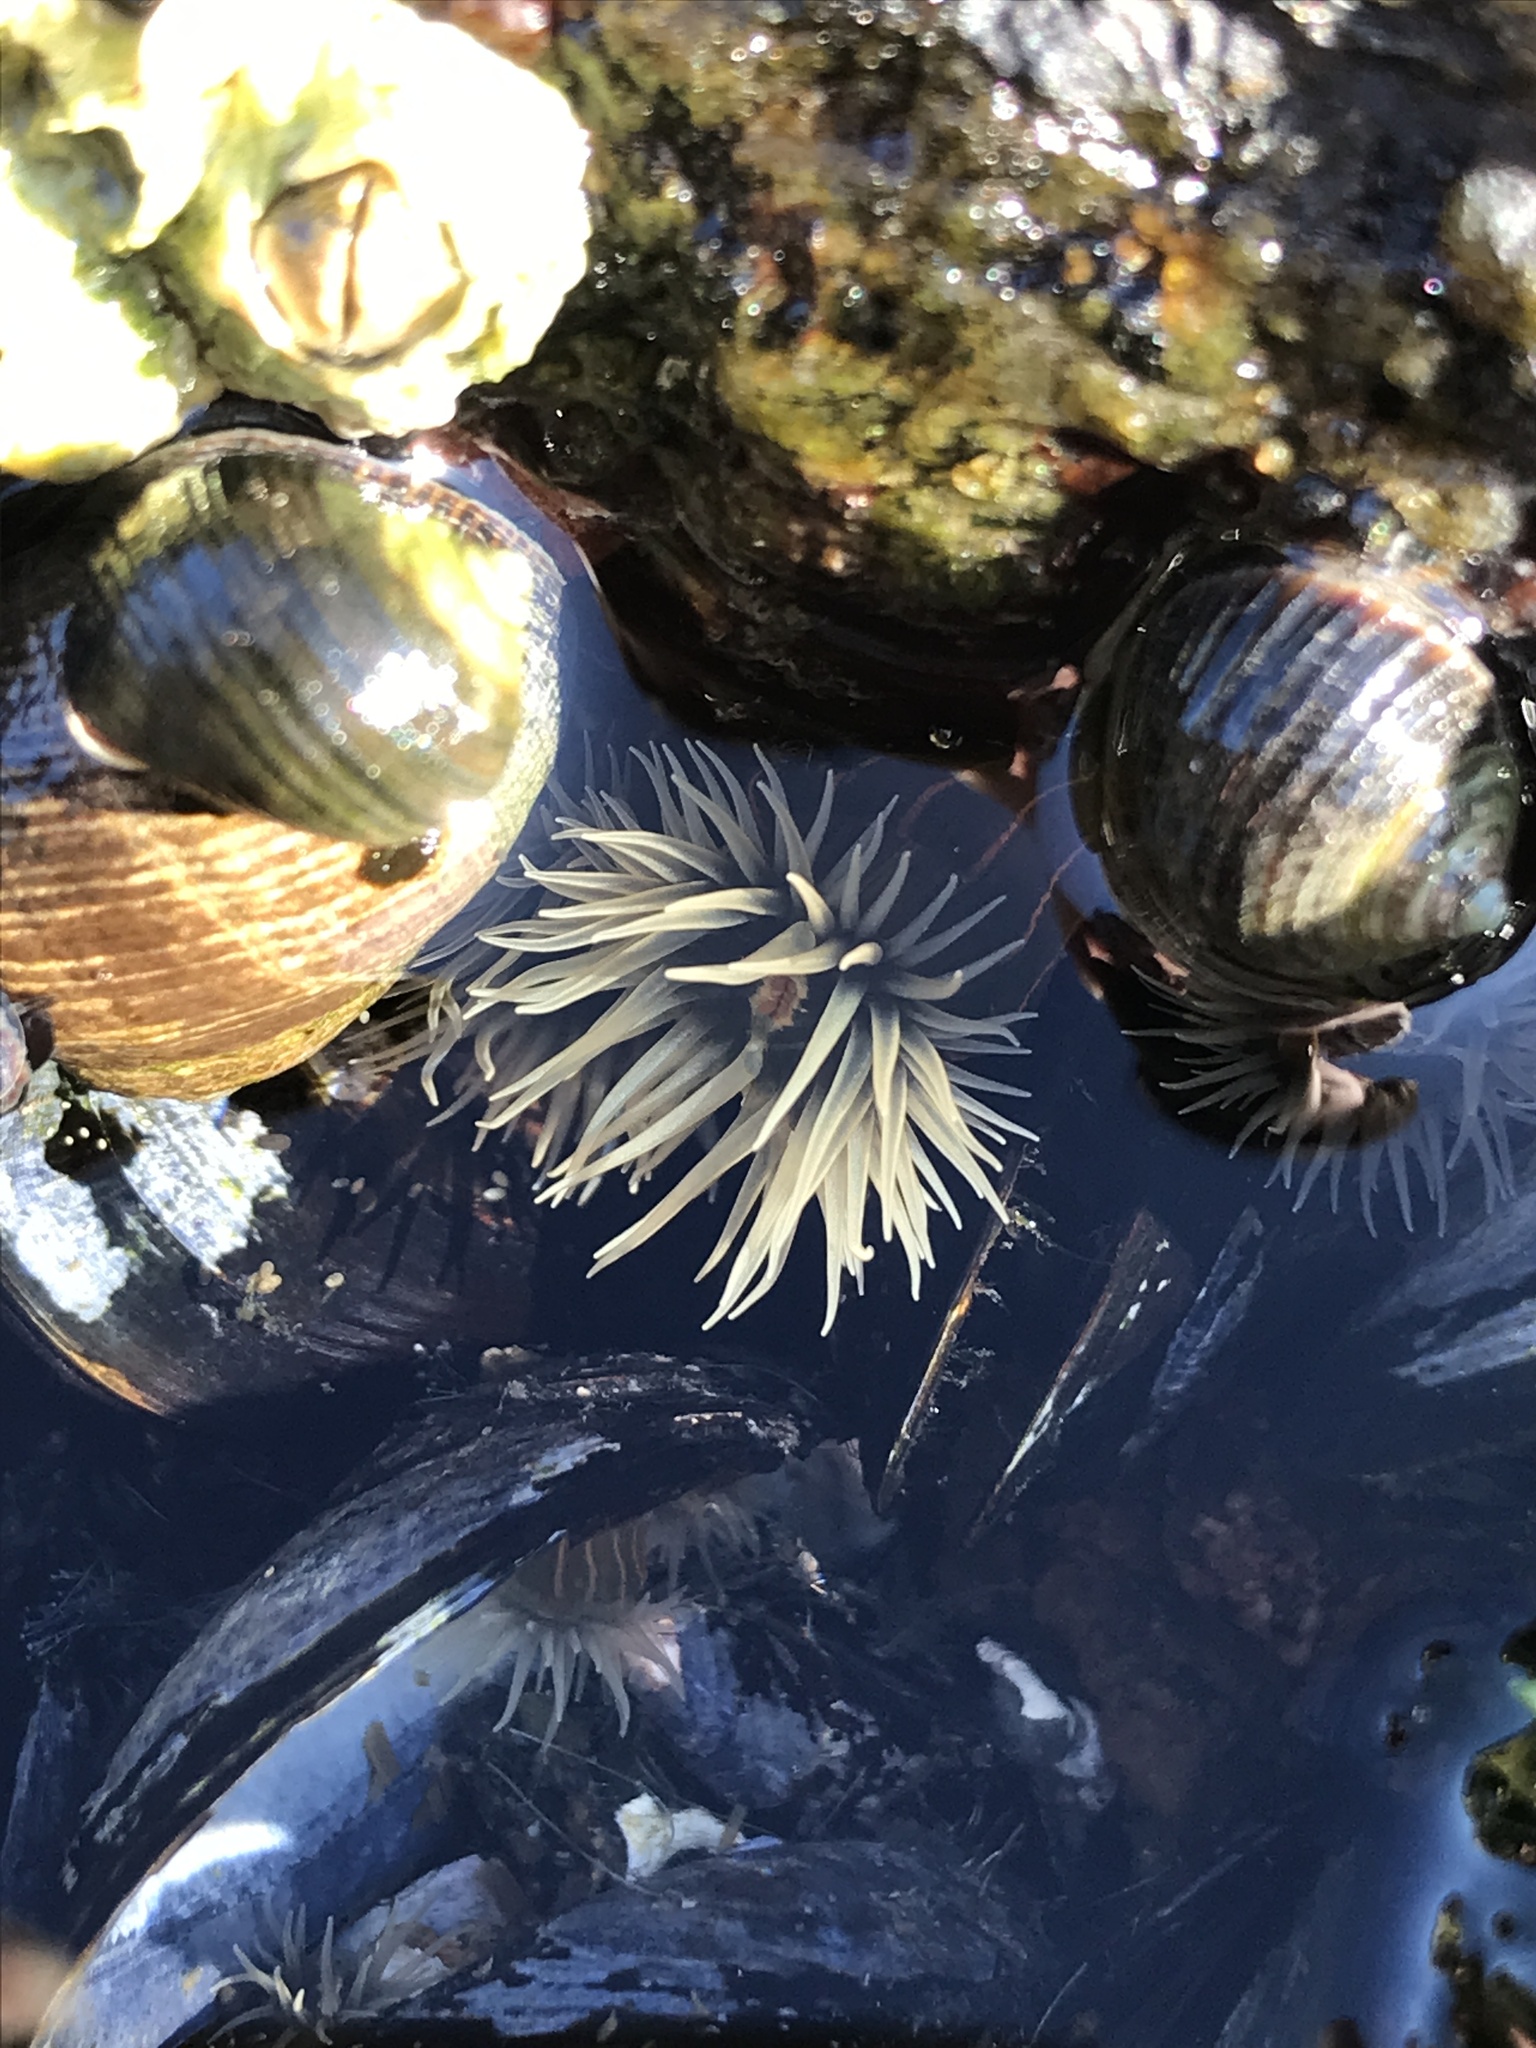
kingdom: Animalia
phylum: Cnidaria
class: Anthozoa
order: Actiniaria
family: Diadumenidae
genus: Diadumene
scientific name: Diadumene lineata
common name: Orange-striped anemone
